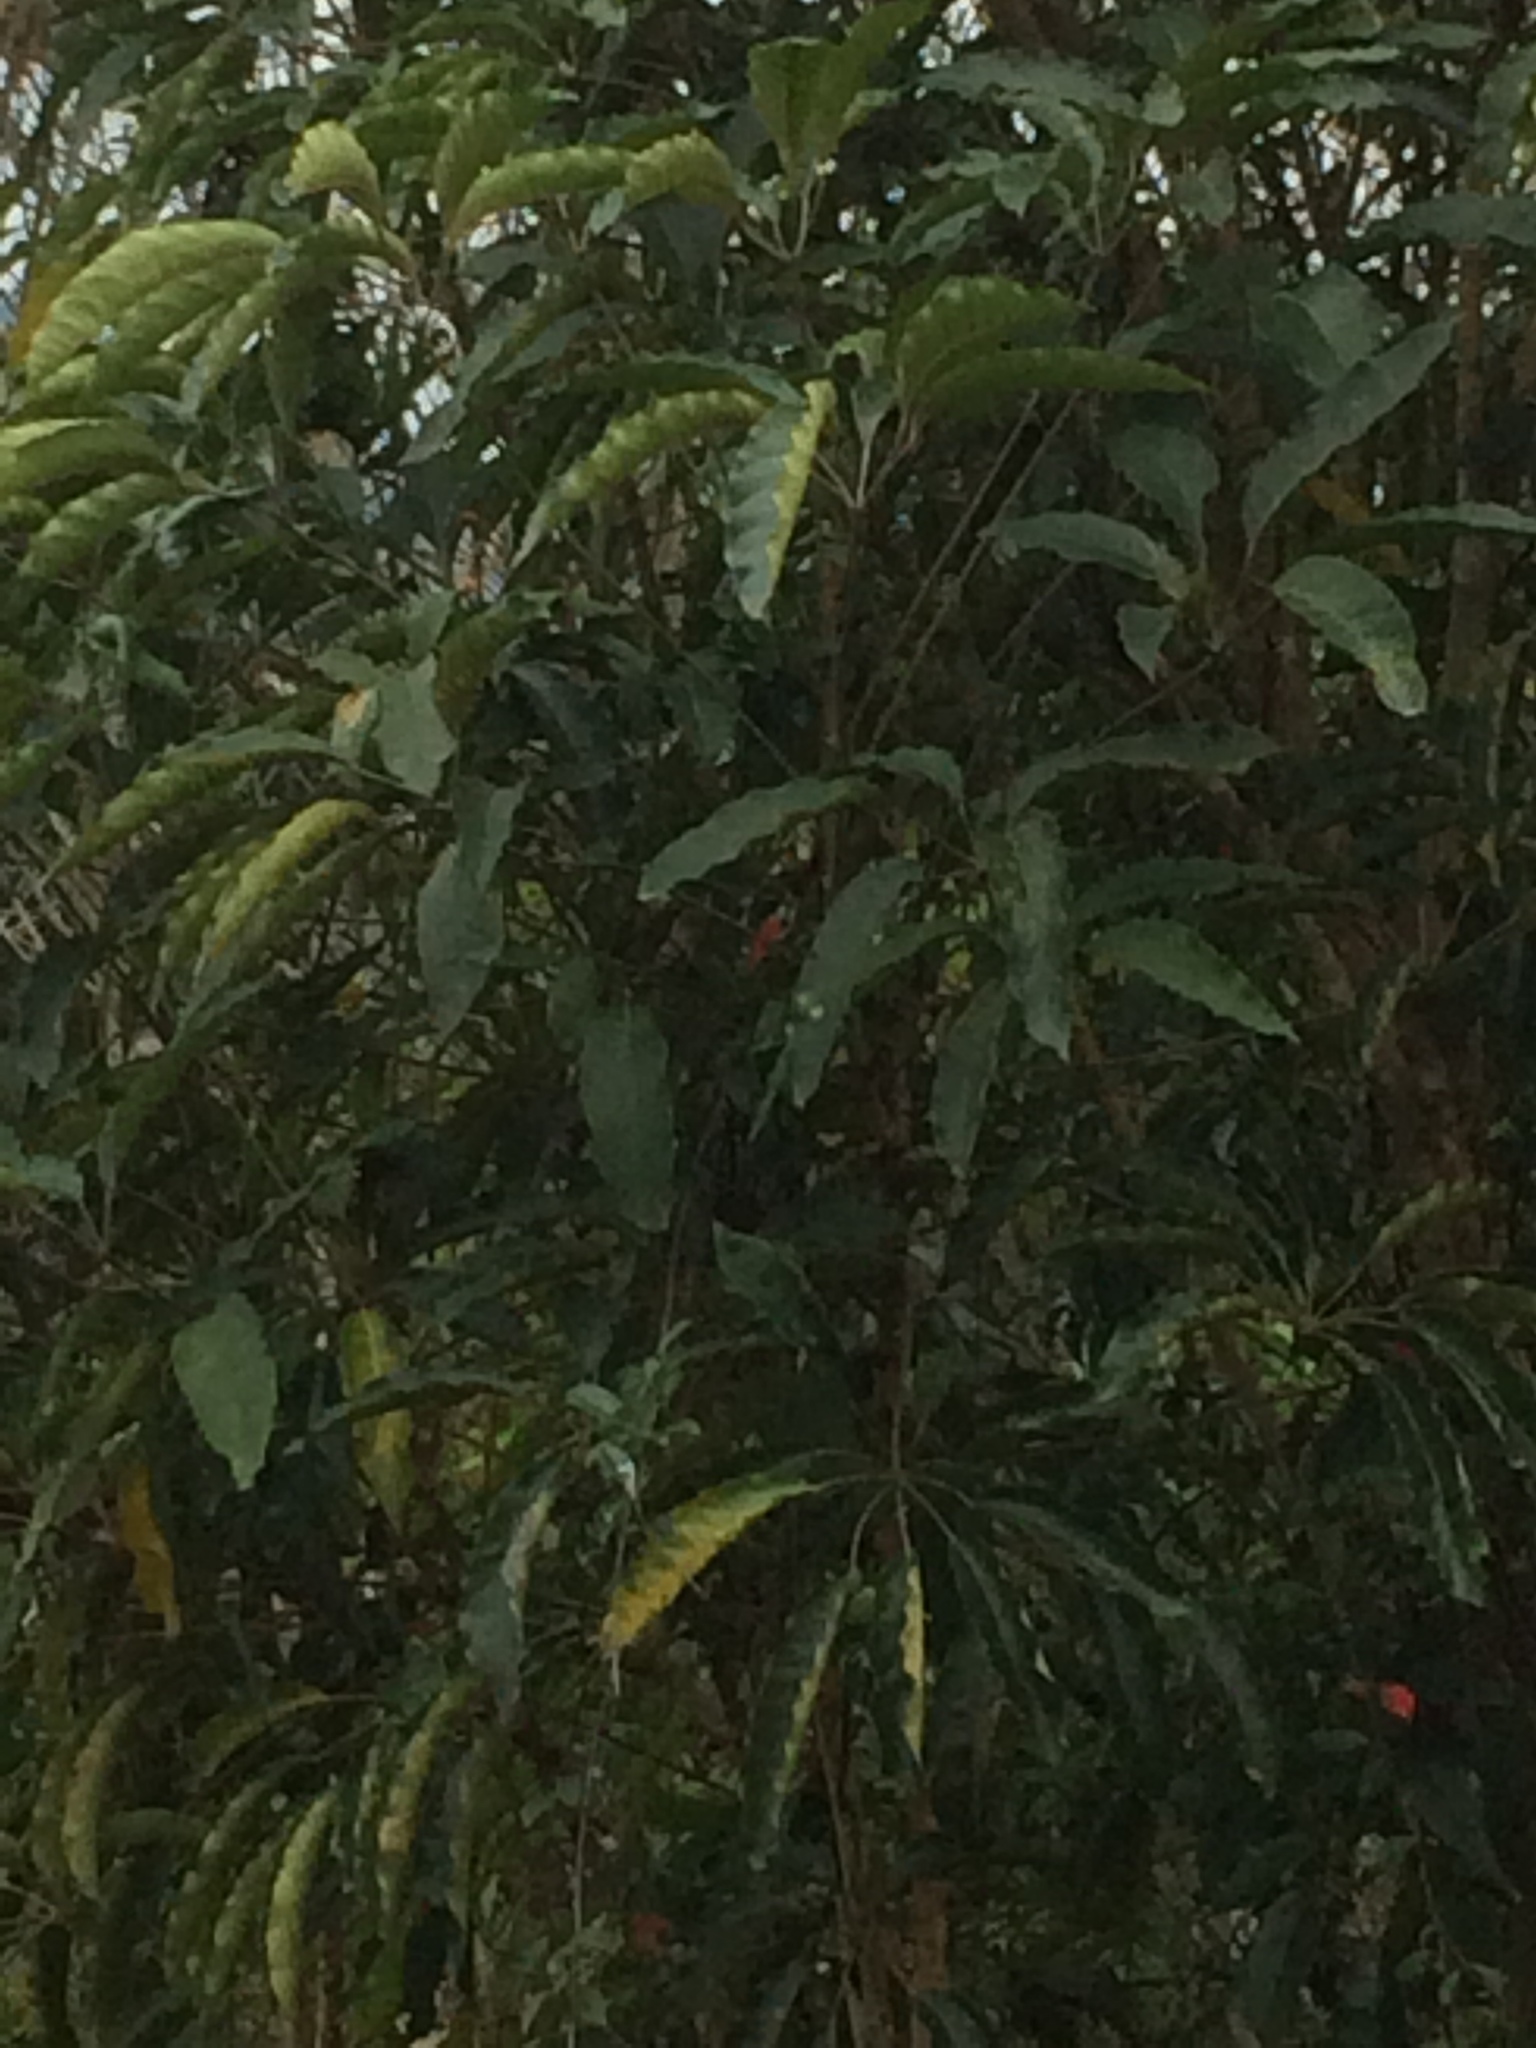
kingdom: Plantae
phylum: Tracheophyta
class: Magnoliopsida
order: Apiales
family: Araliaceae
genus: Heptapleurum
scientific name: Heptapleurum heptaphyllum
